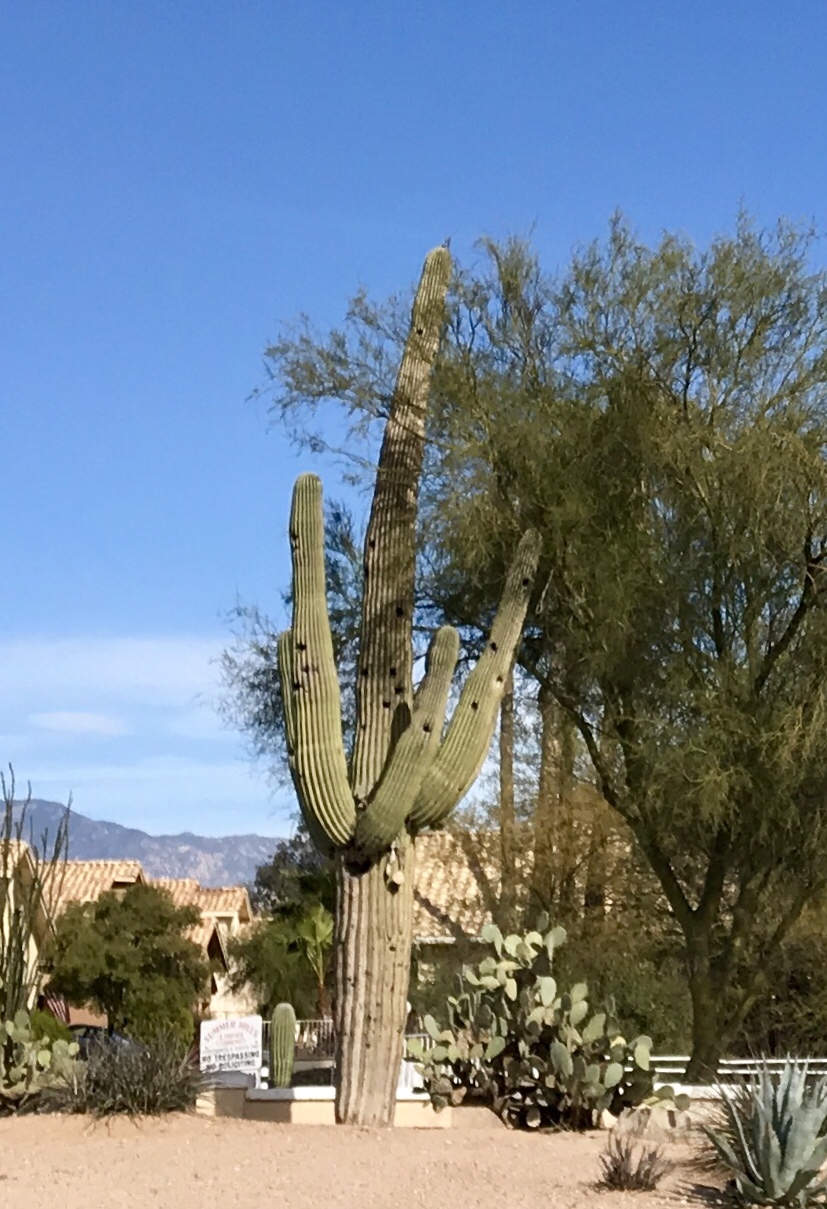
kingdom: Plantae
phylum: Tracheophyta
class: Magnoliopsida
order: Caryophyllales
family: Cactaceae
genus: Carnegiea
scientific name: Carnegiea gigantea
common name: Saguaro
